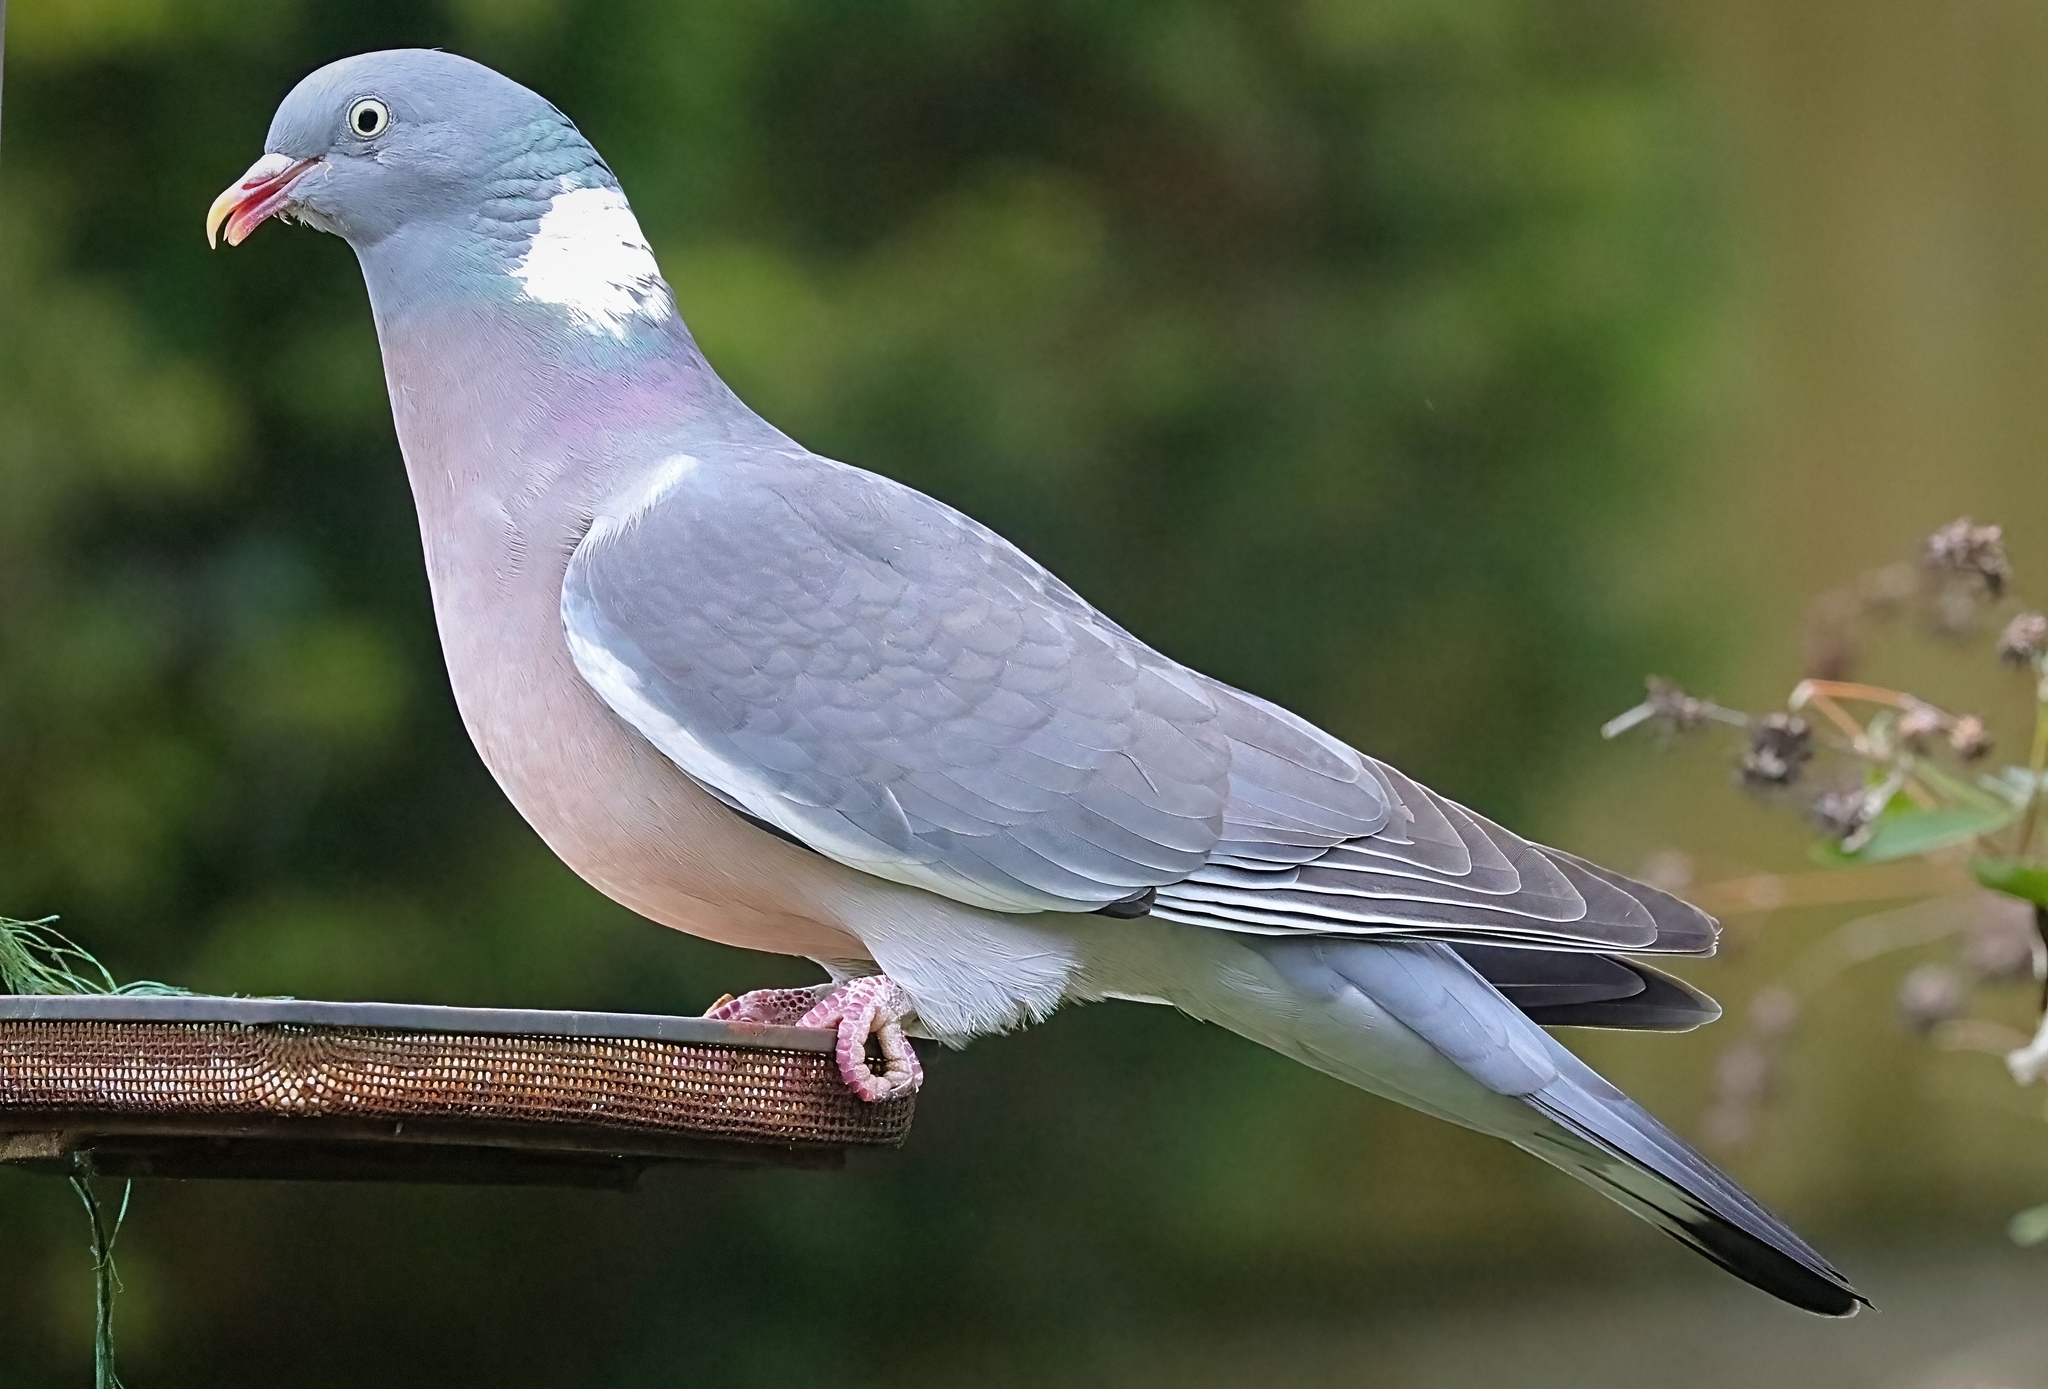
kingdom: Animalia
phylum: Chordata
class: Aves
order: Columbiformes
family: Columbidae
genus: Columba
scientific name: Columba palumbus
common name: Common wood pigeon
